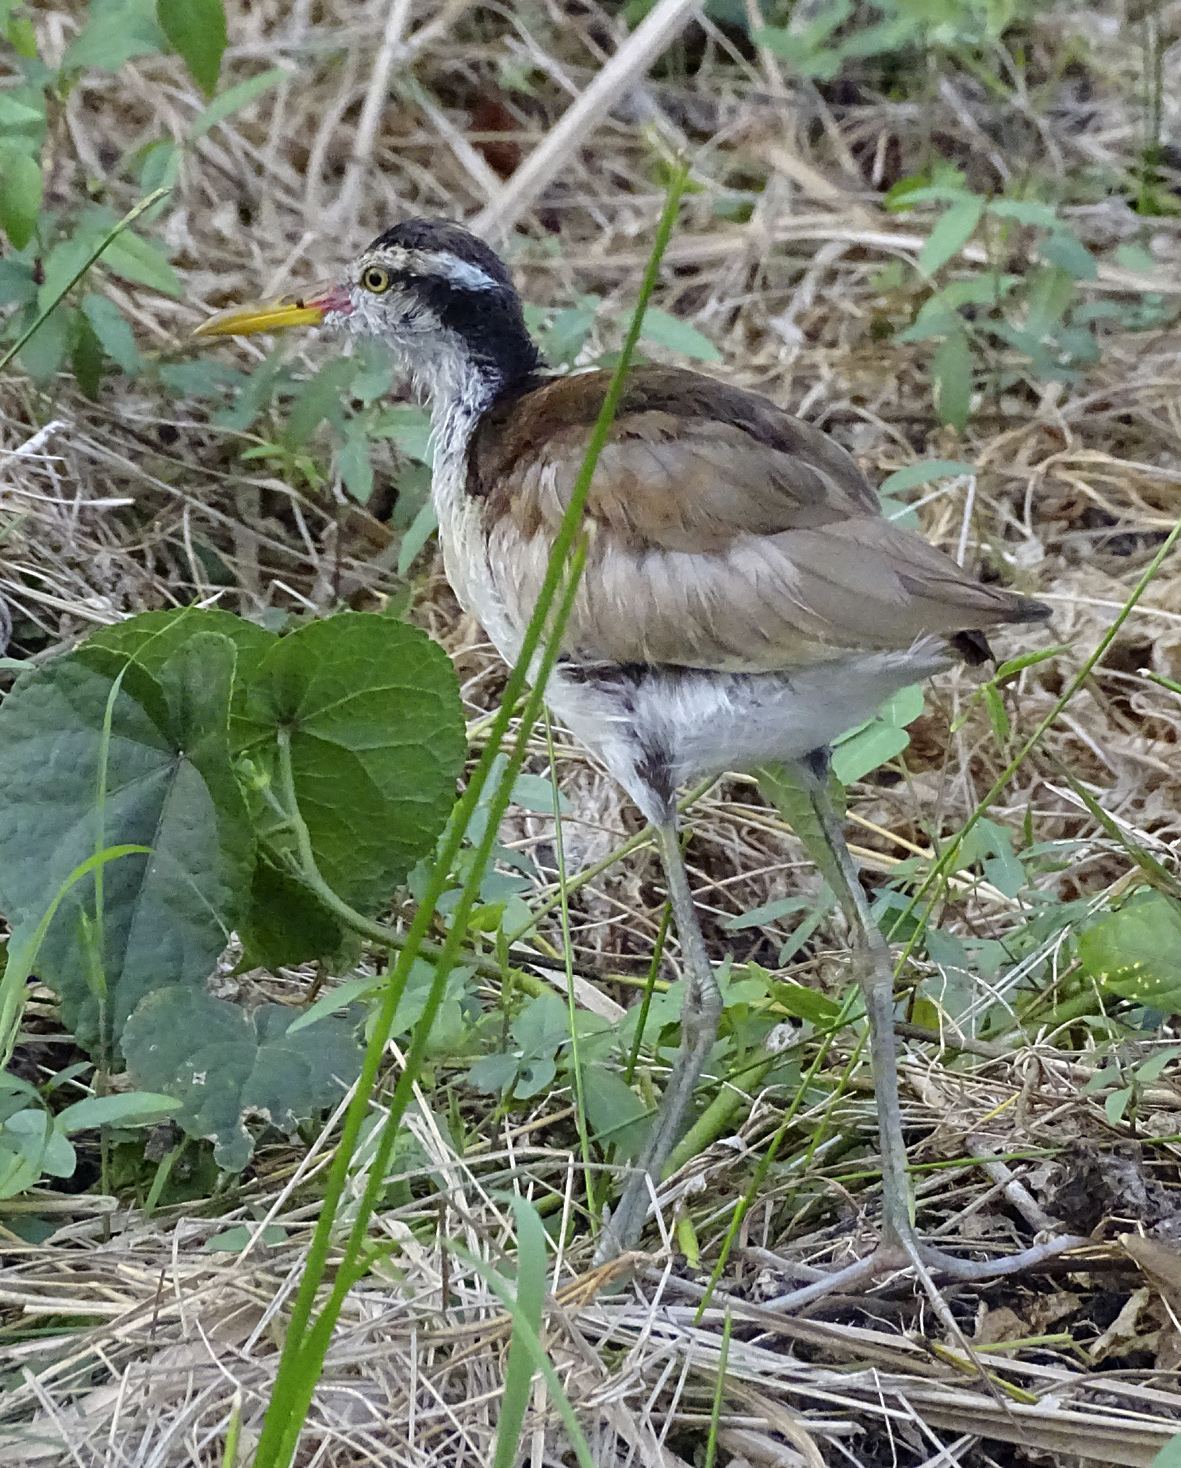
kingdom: Animalia
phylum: Chordata
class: Aves
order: Charadriiformes
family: Jacanidae
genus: Jacana
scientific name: Jacana jacana
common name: Wattled jacana
